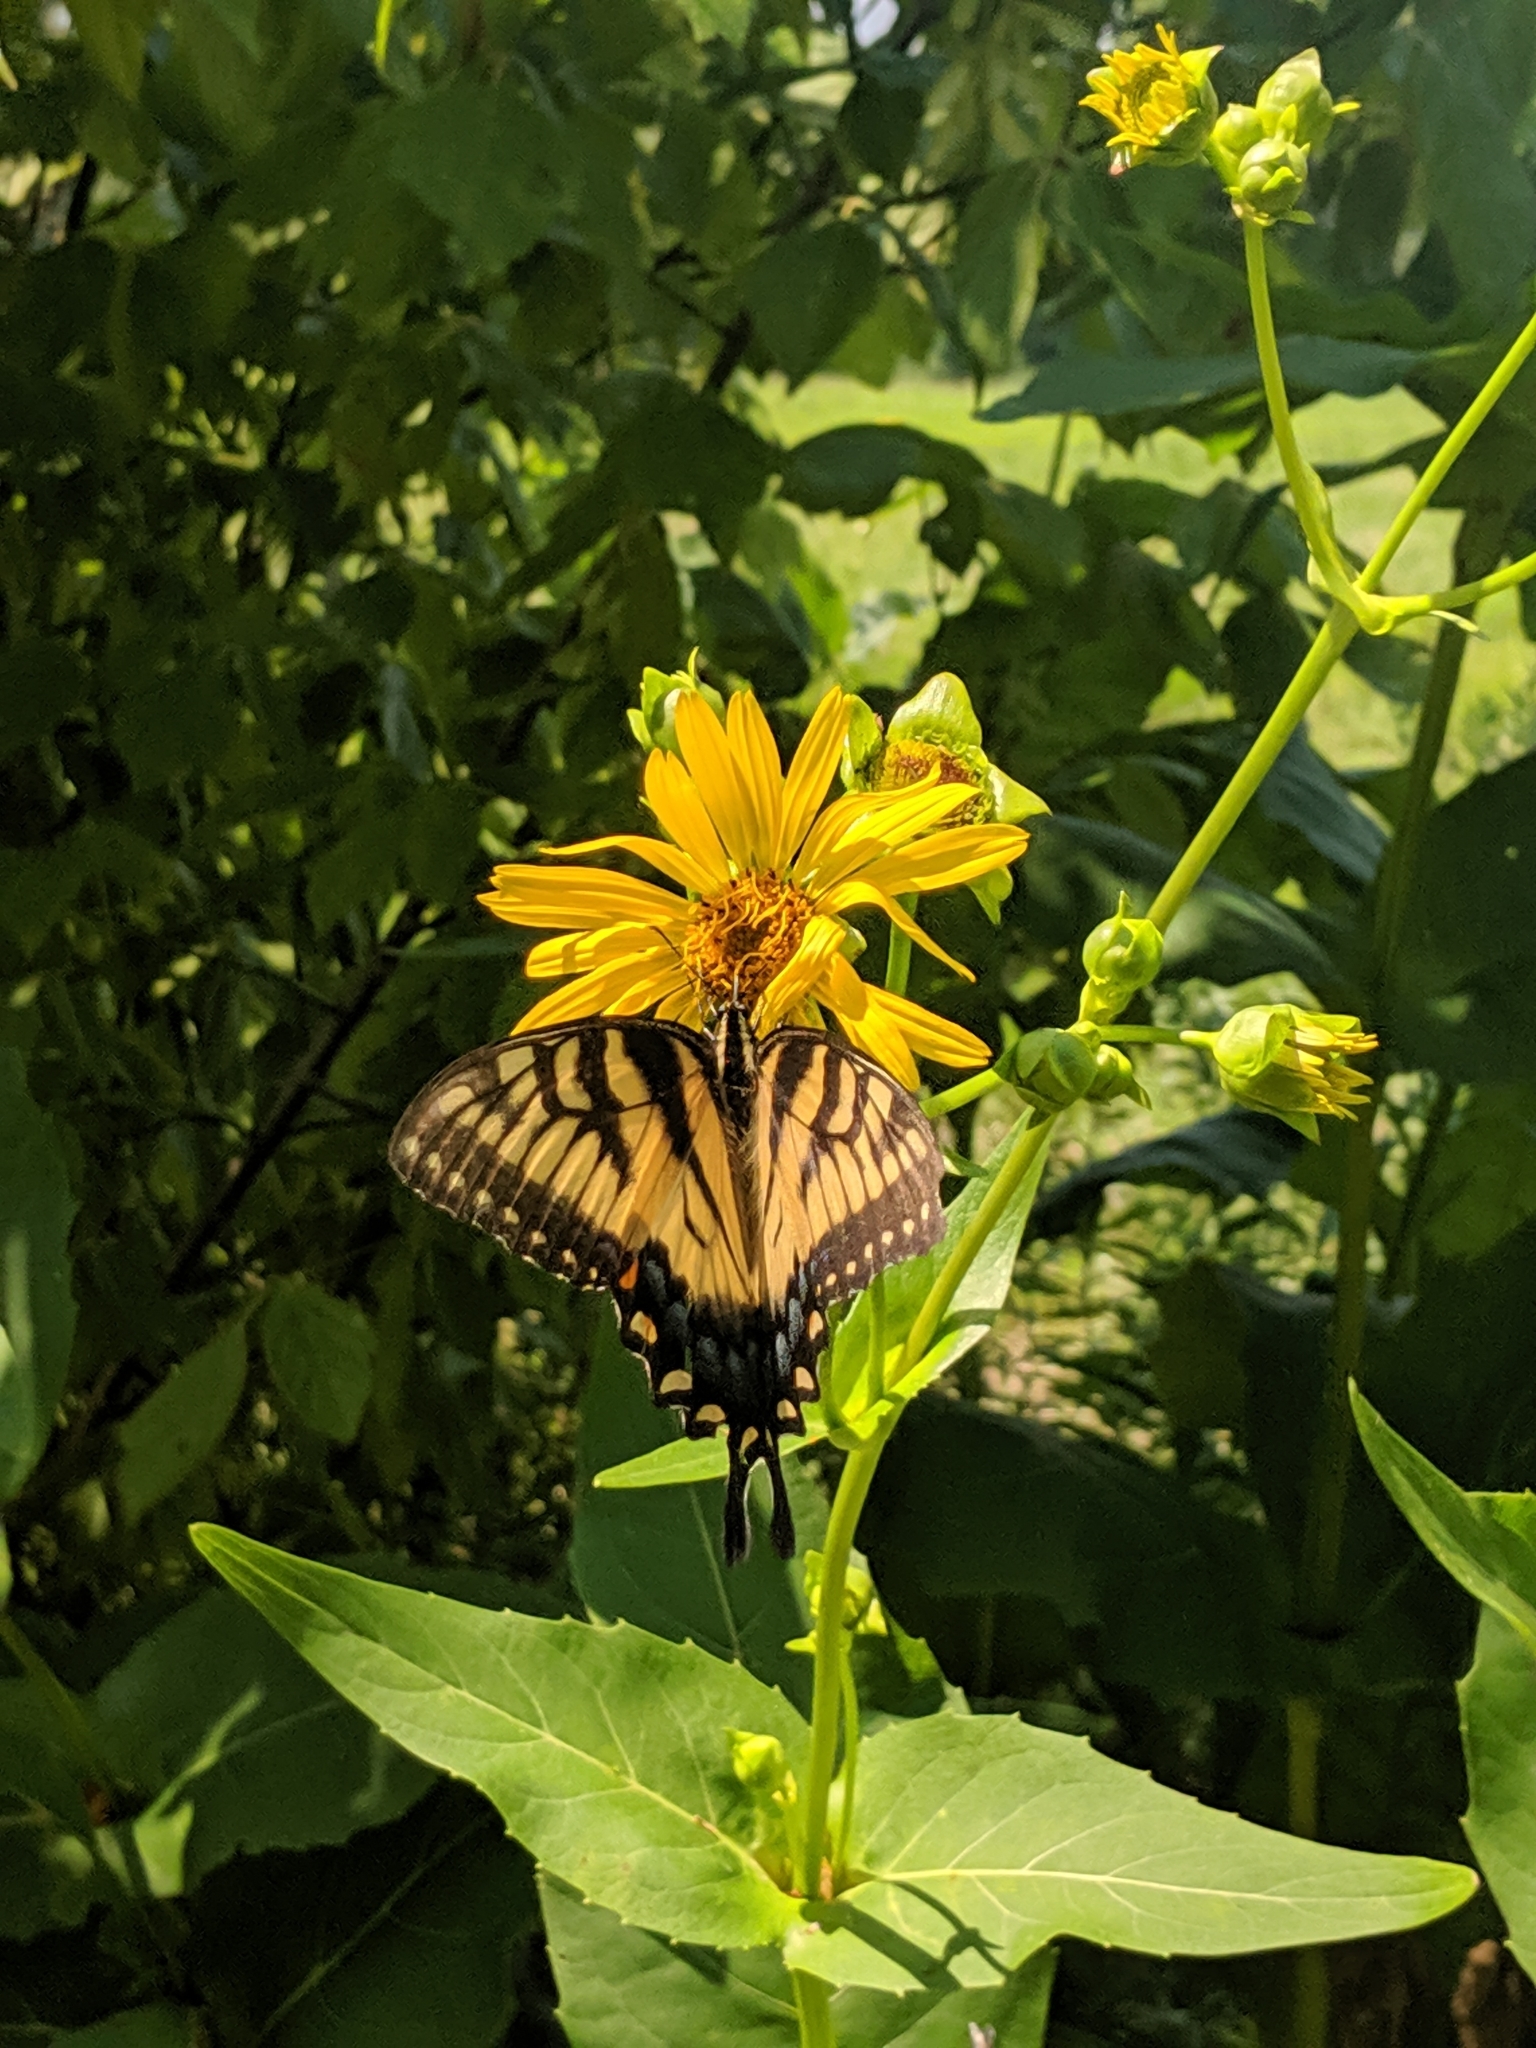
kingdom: Animalia
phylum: Arthropoda
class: Insecta
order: Lepidoptera
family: Papilionidae
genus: Papilio
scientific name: Papilio glaucus
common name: Tiger swallowtail
